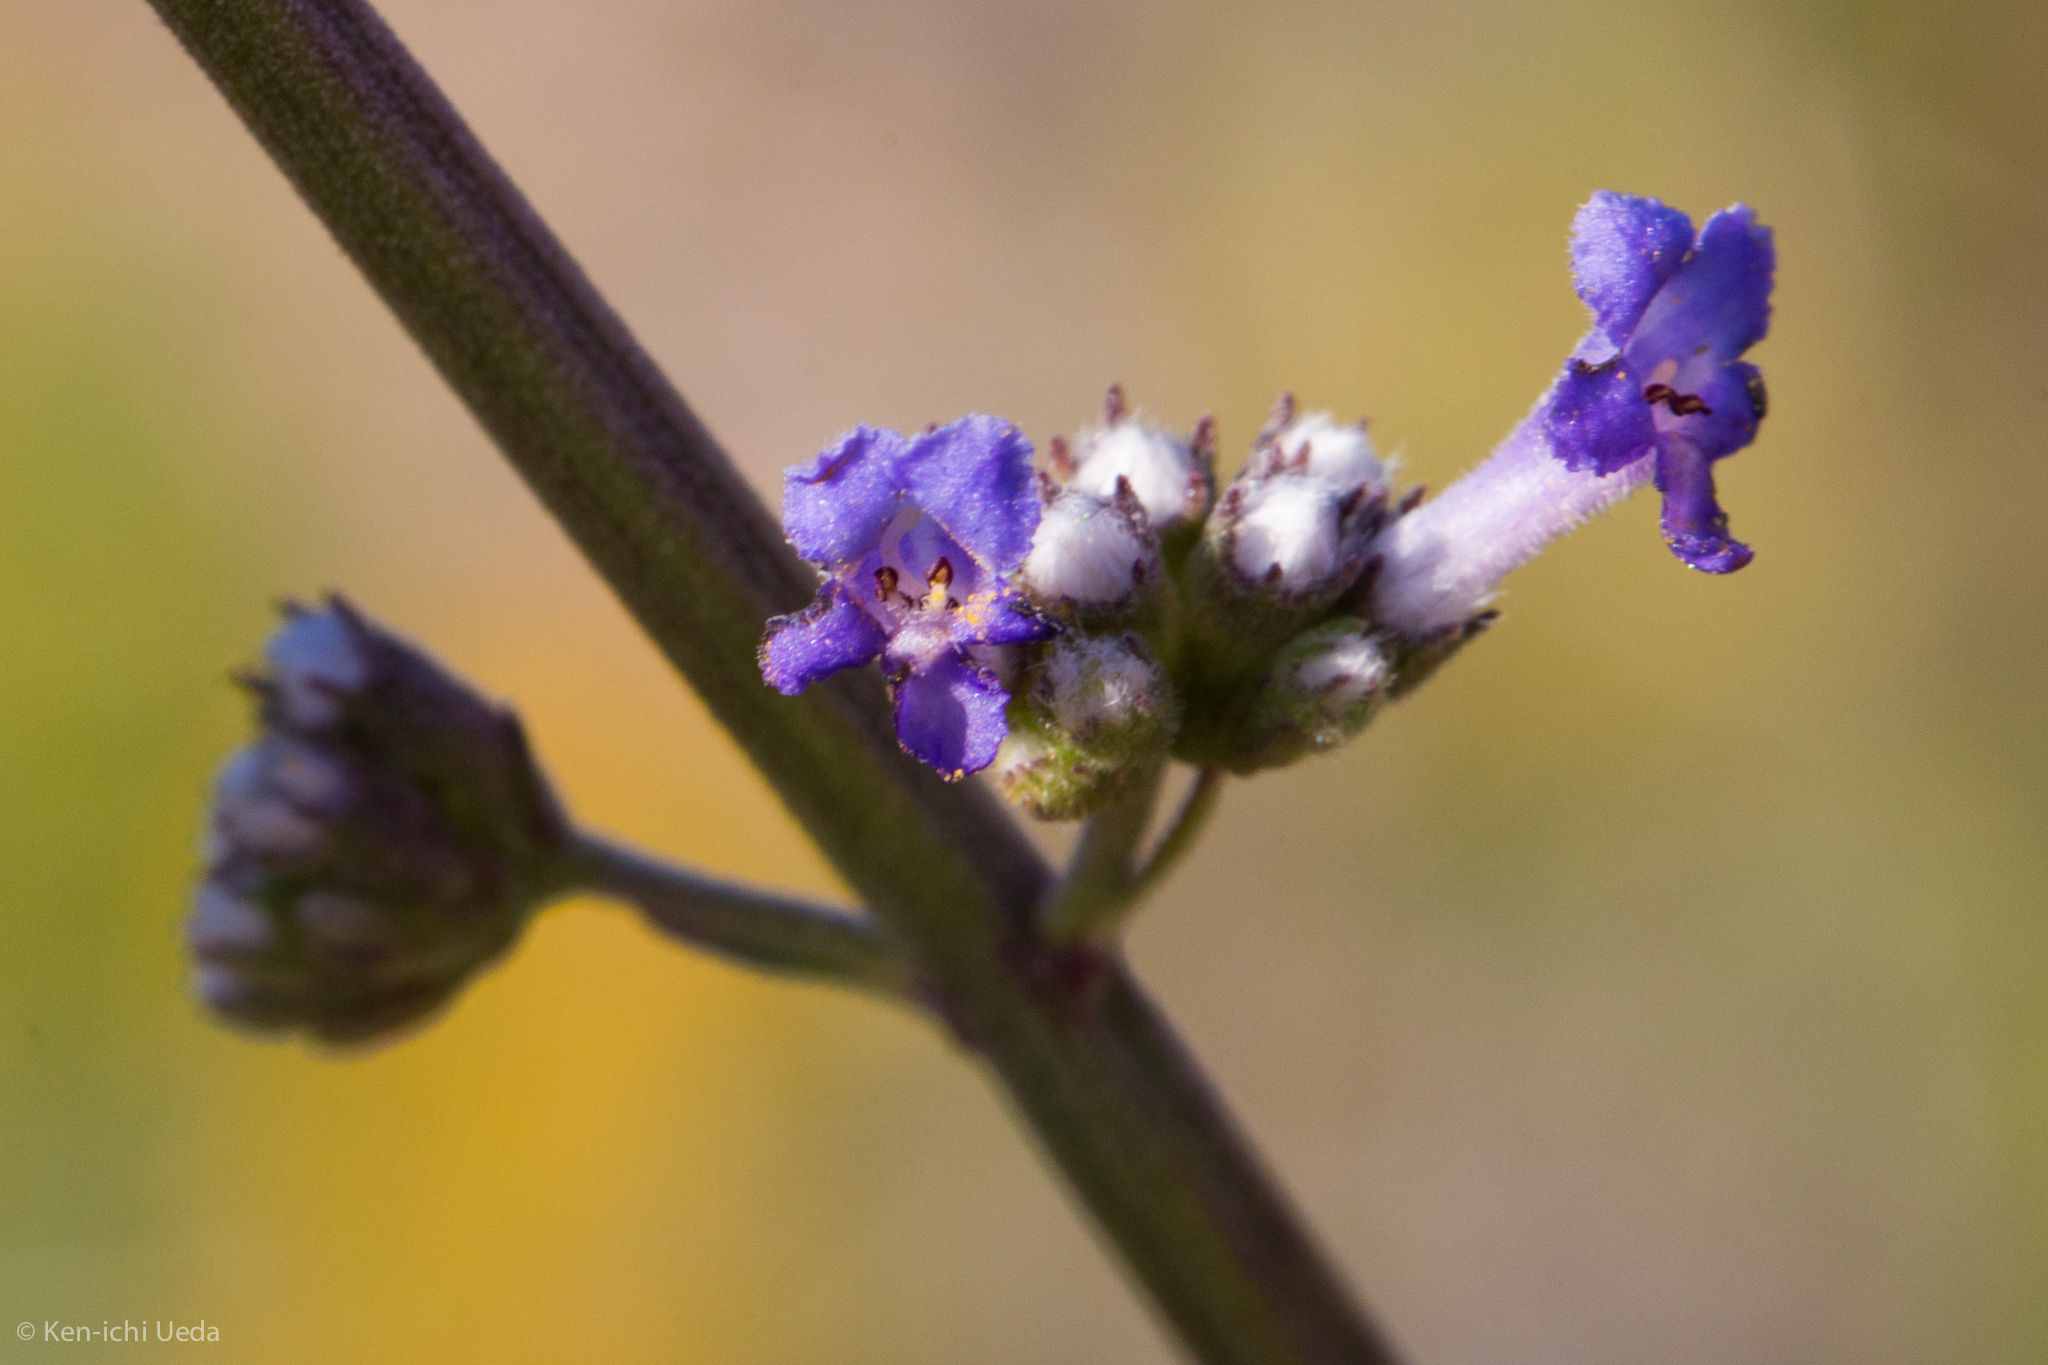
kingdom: Plantae
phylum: Tracheophyta
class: Magnoliopsida
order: Lamiales
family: Lamiaceae
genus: Mesosphaerum
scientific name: Mesosphaerum collinum
